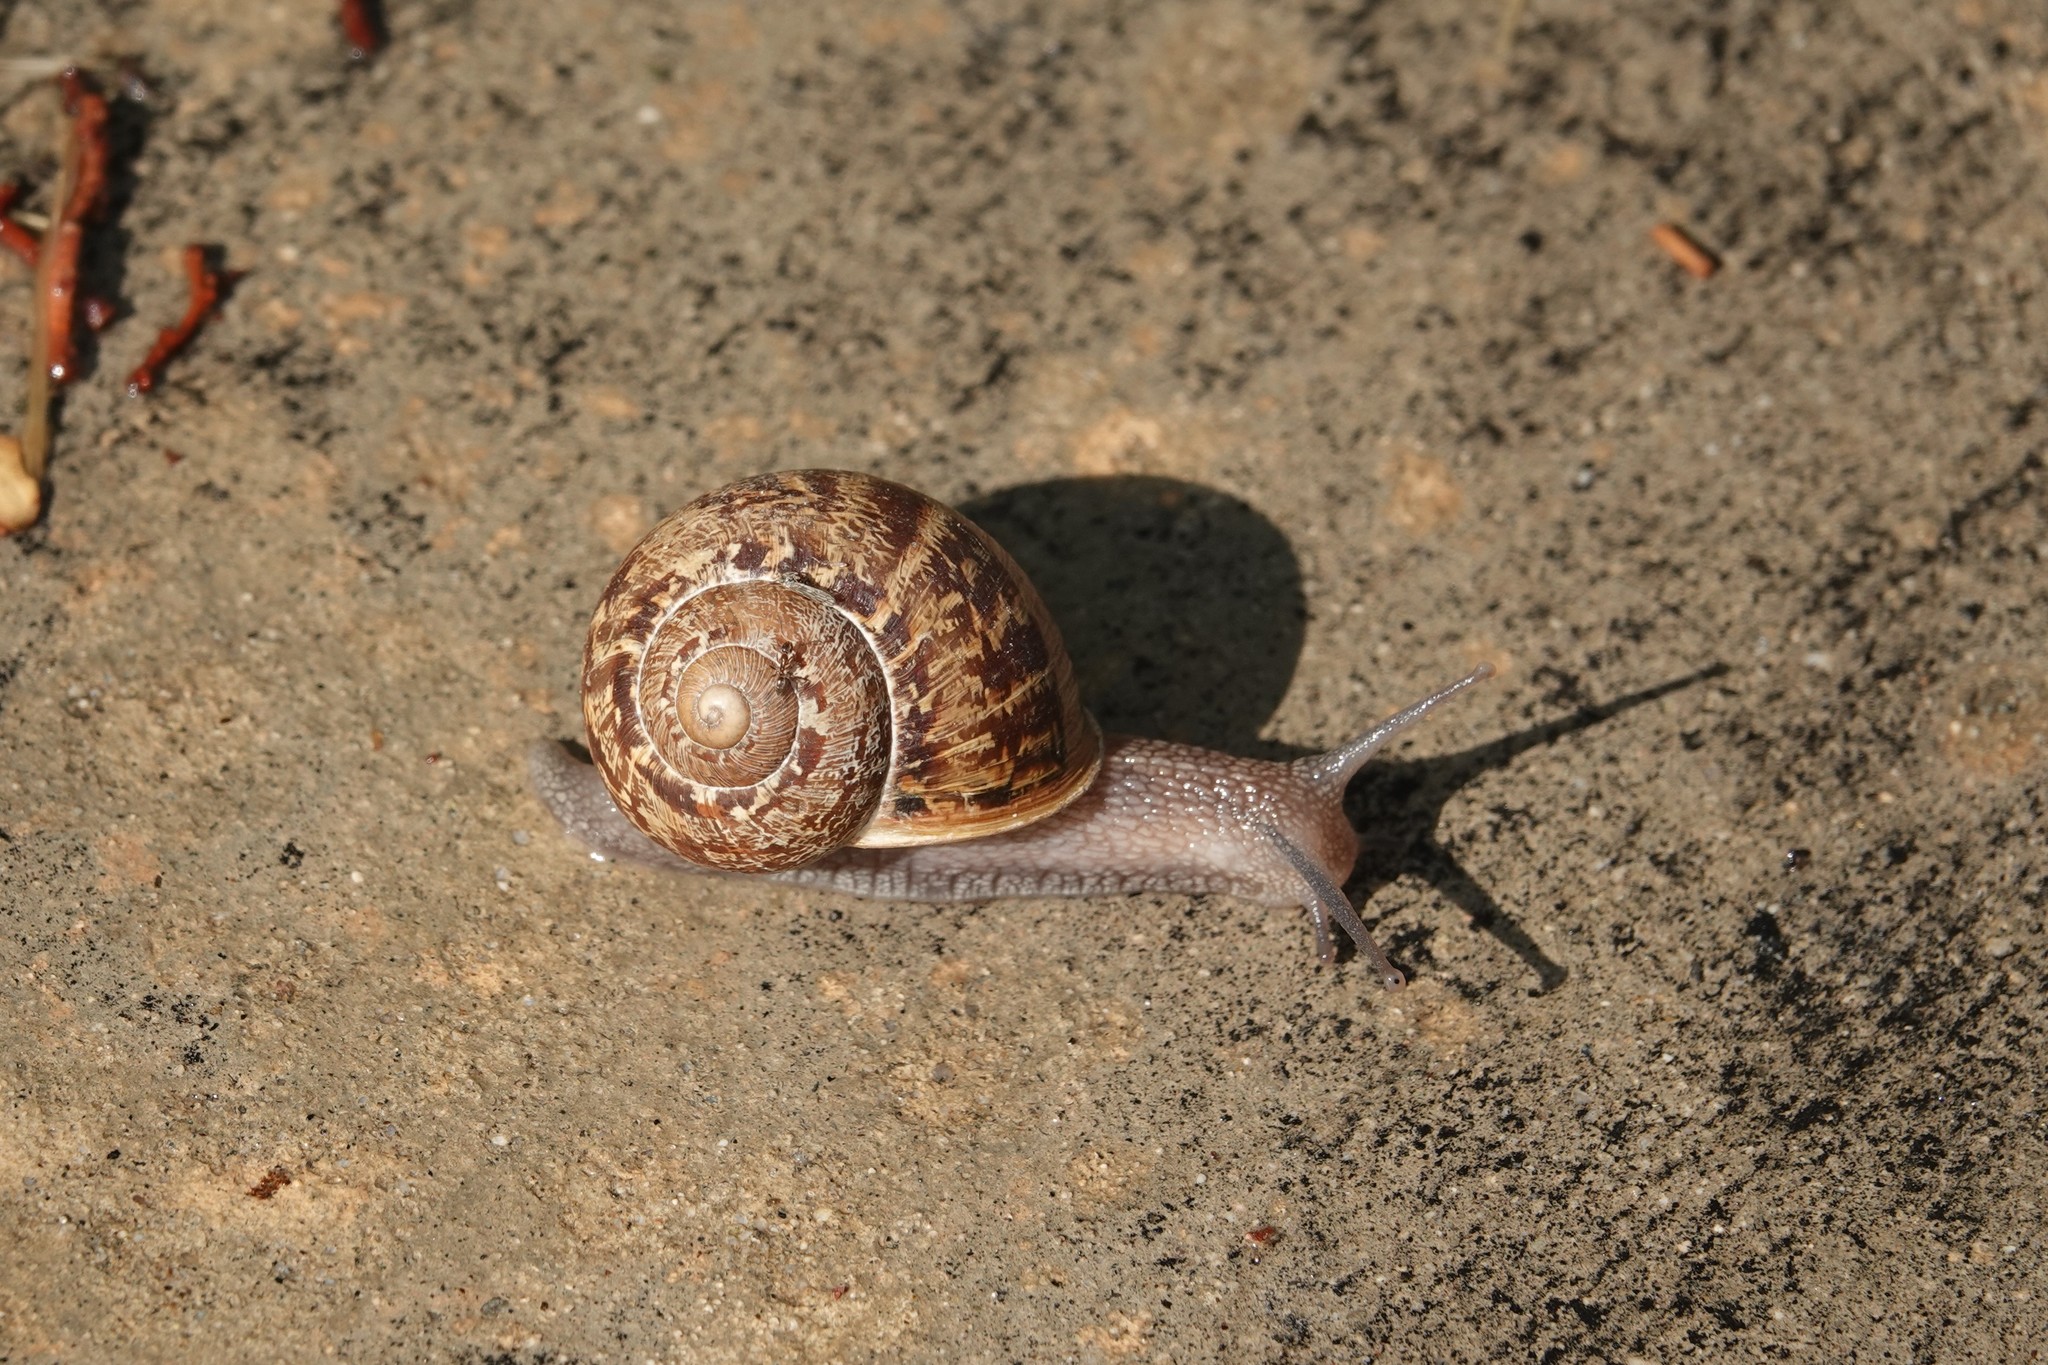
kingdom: Animalia
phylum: Mollusca
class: Gastropoda
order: Stylommatophora
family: Helicidae
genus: Cornu
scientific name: Cornu aspersum
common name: Brown garden snail
